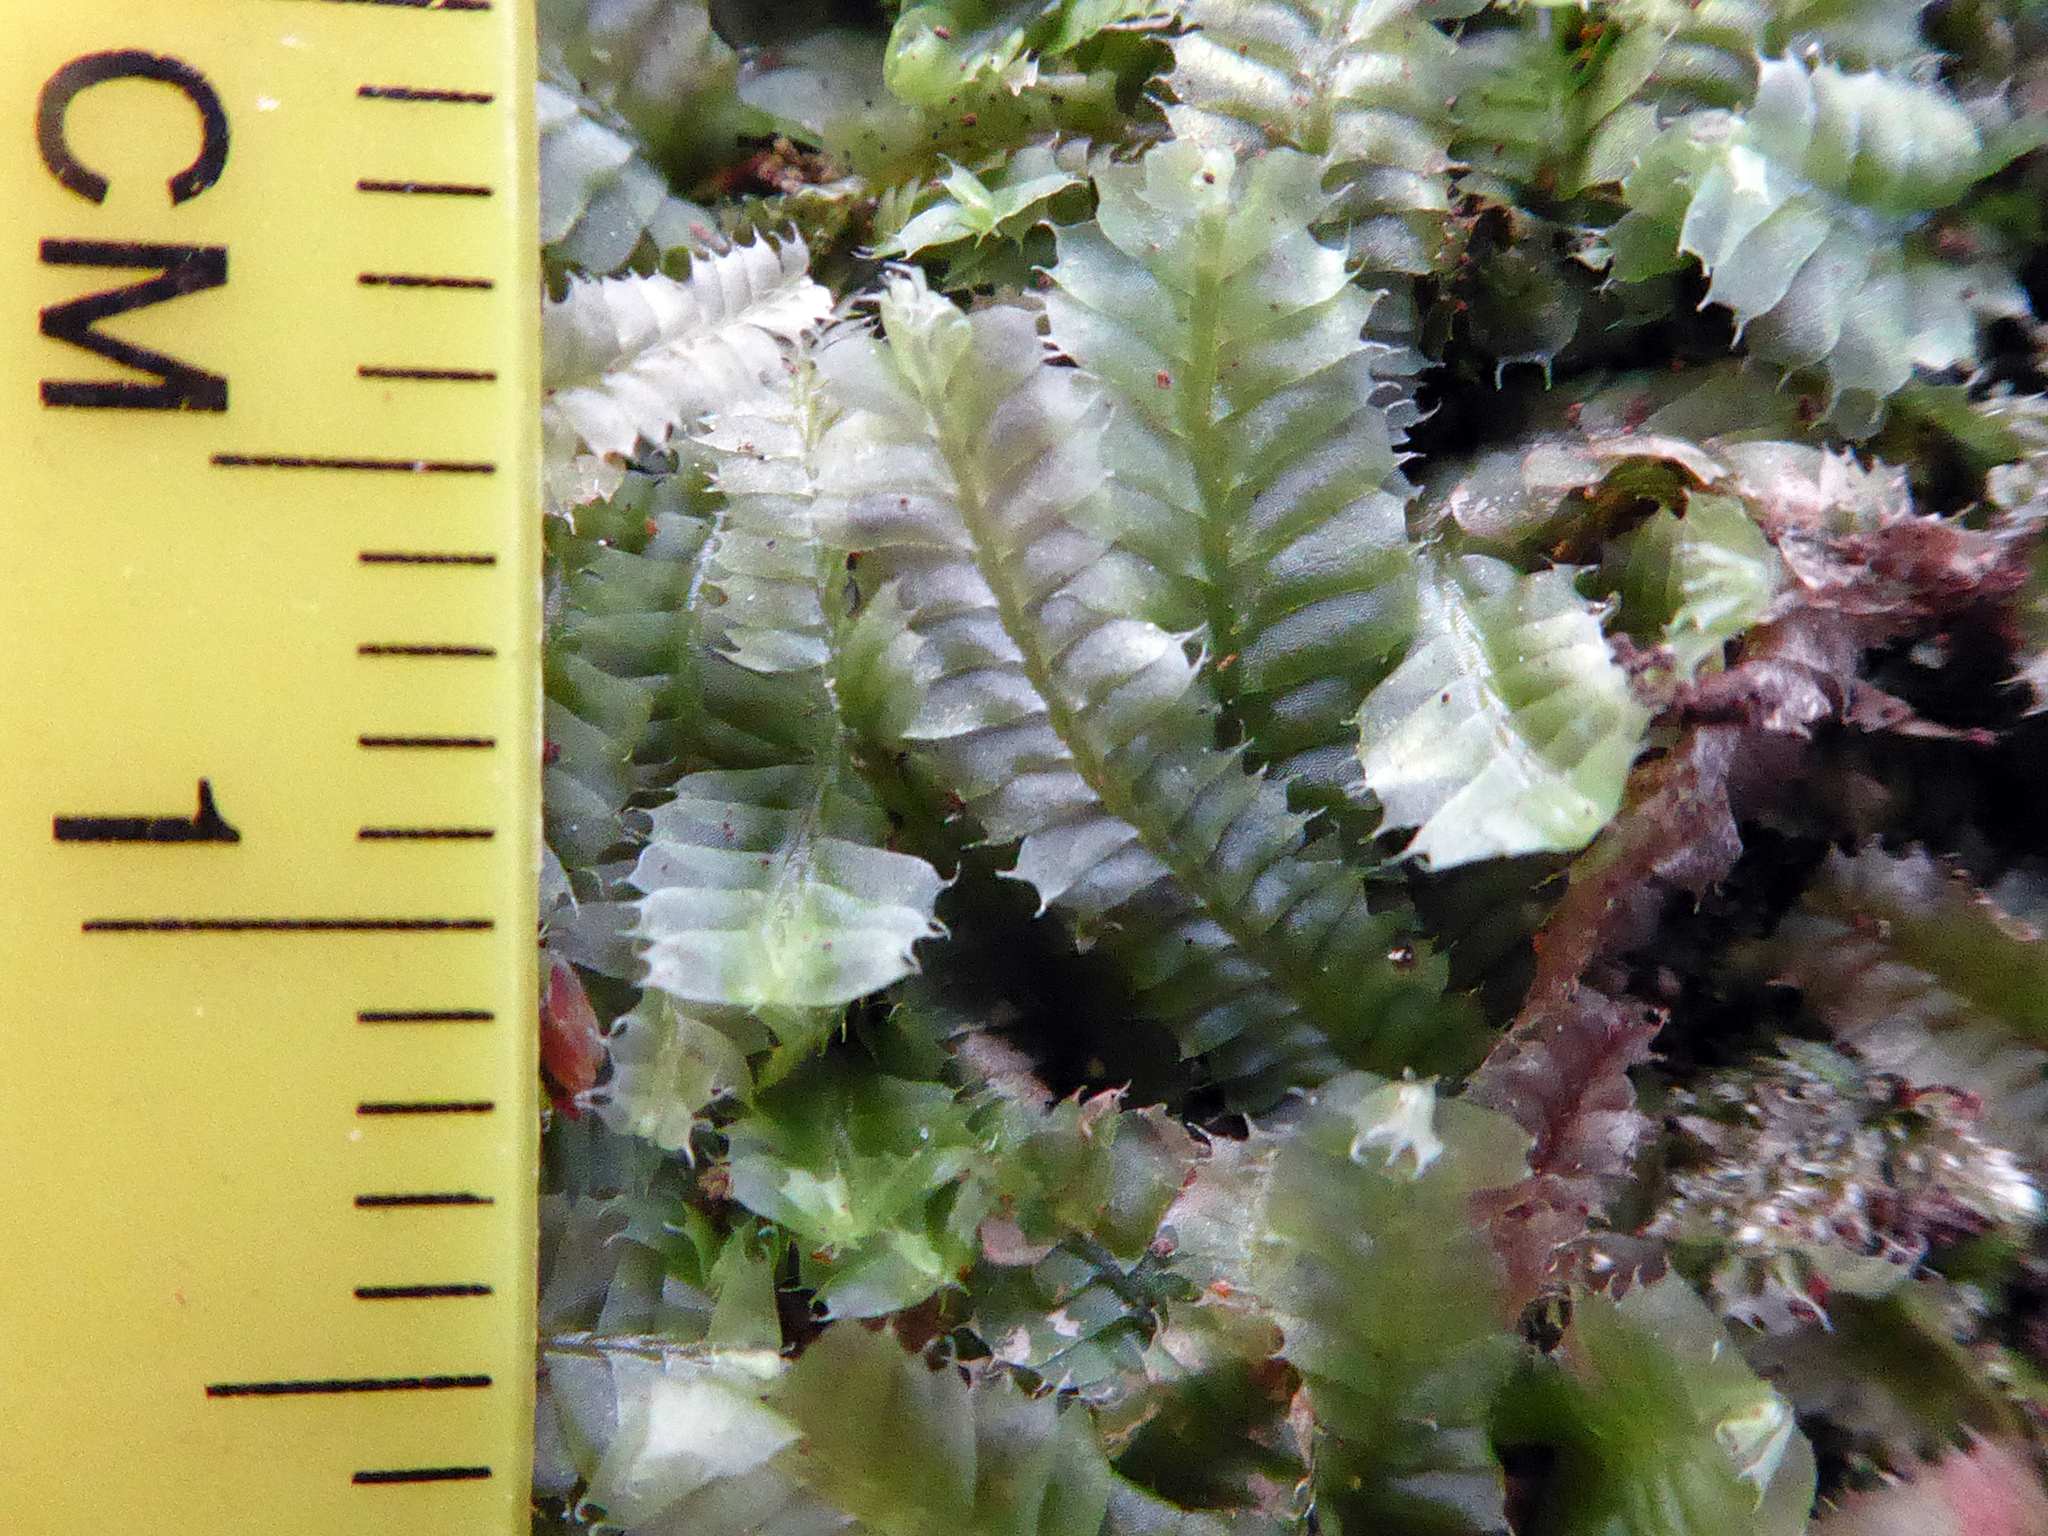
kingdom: Plantae
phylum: Marchantiophyta
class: Jungermanniopsida
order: Jungermanniales
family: Lophocoleaceae
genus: Heteroscyphus
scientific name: Heteroscyphus allodontus
